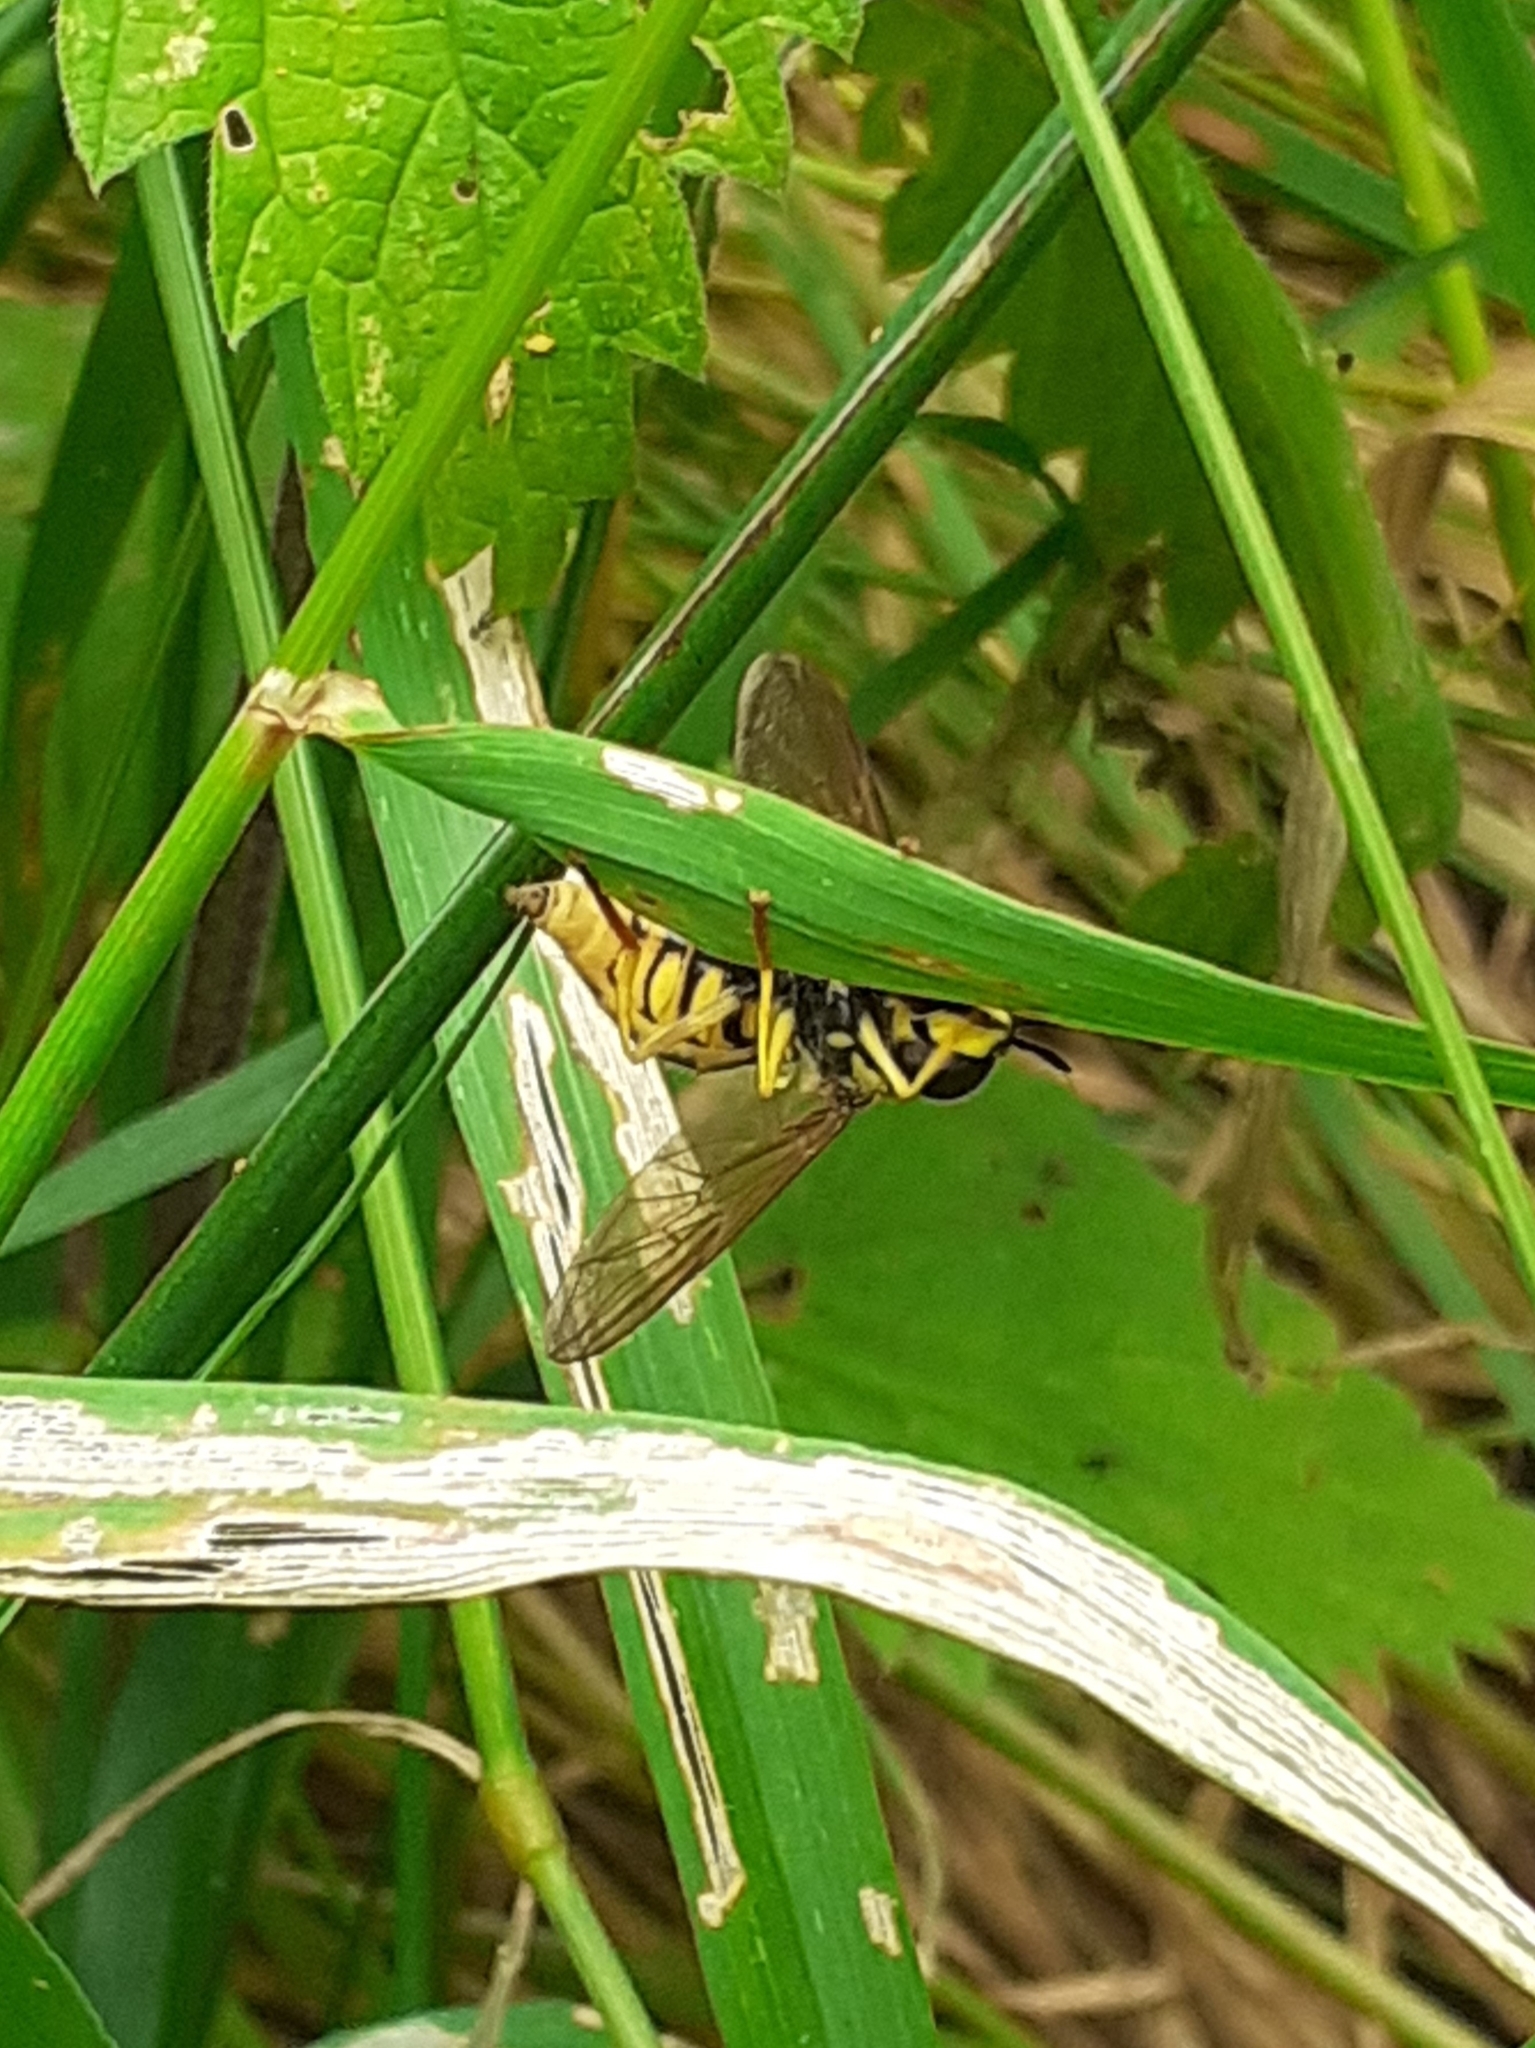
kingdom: Animalia
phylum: Arthropoda
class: Insecta
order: Diptera
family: Syrphidae
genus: Chrysotoxum
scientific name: Chrysotoxum
